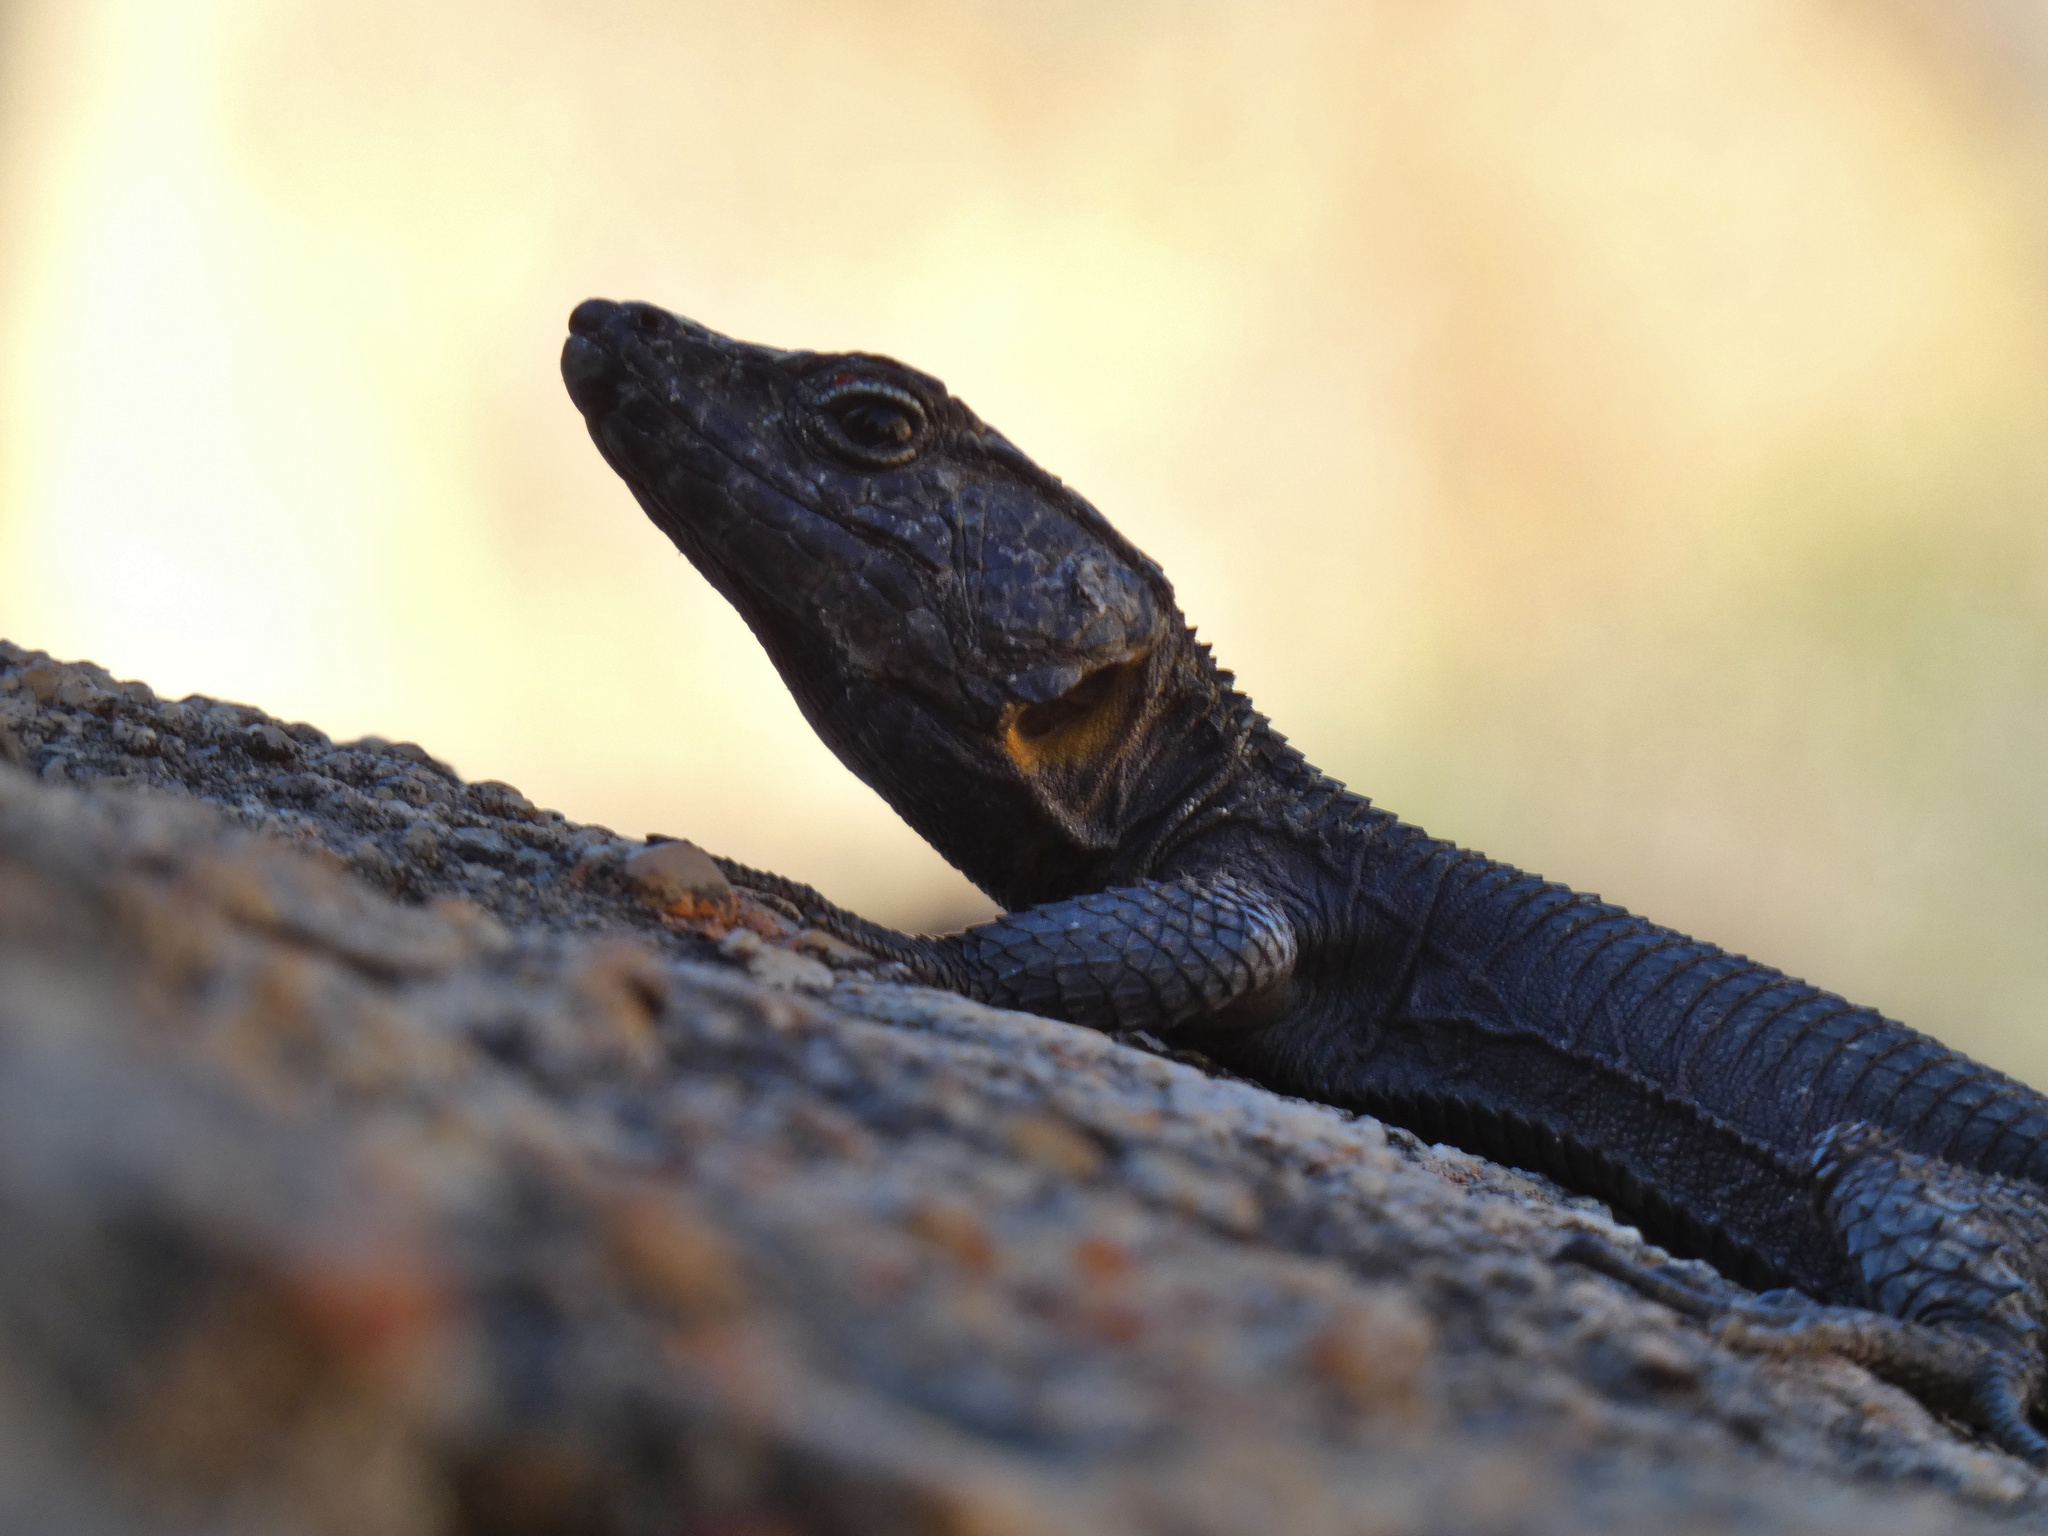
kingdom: Animalia
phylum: Chordata
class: Squamata
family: Cordylidae
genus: Hemicordylus
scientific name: Hemicordylus capensis
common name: Graceful crag lizard
